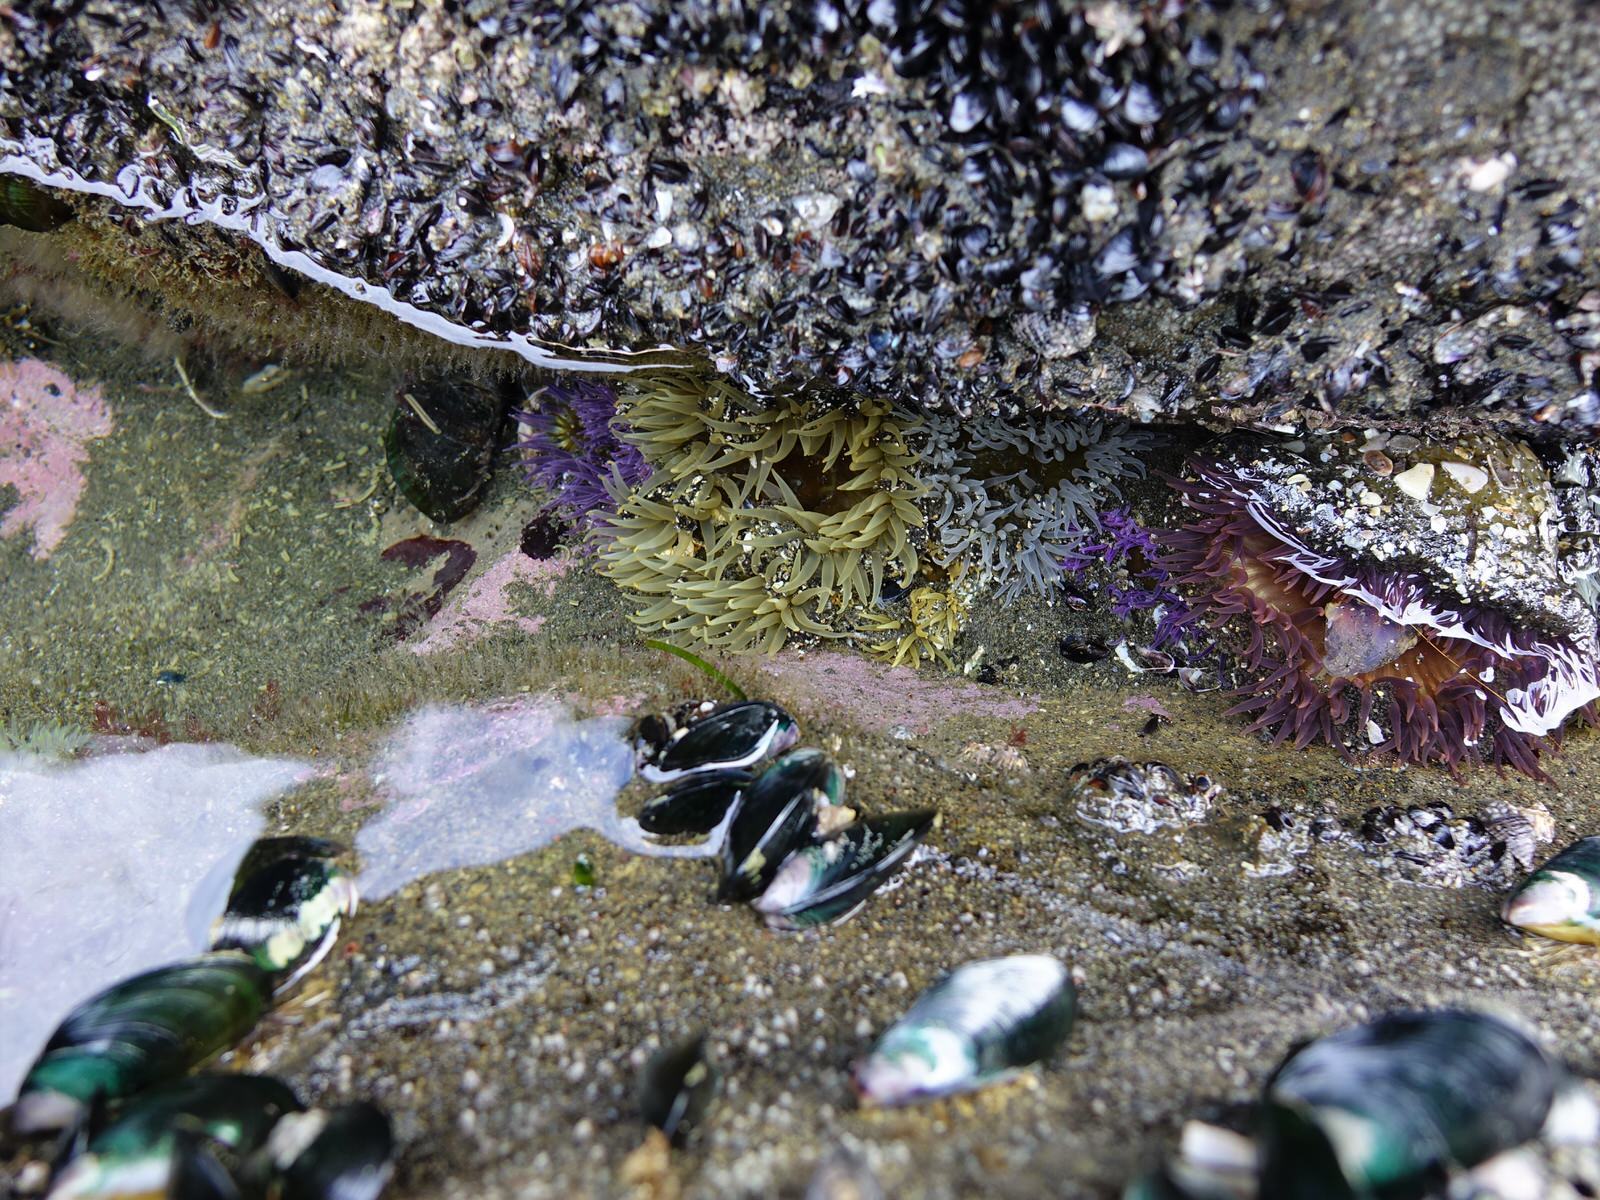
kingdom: Animalia
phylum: Cnidaria
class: Anthozoa
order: Actiniaria
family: Actiniidae
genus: Oulactis
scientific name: Oulactis magna
